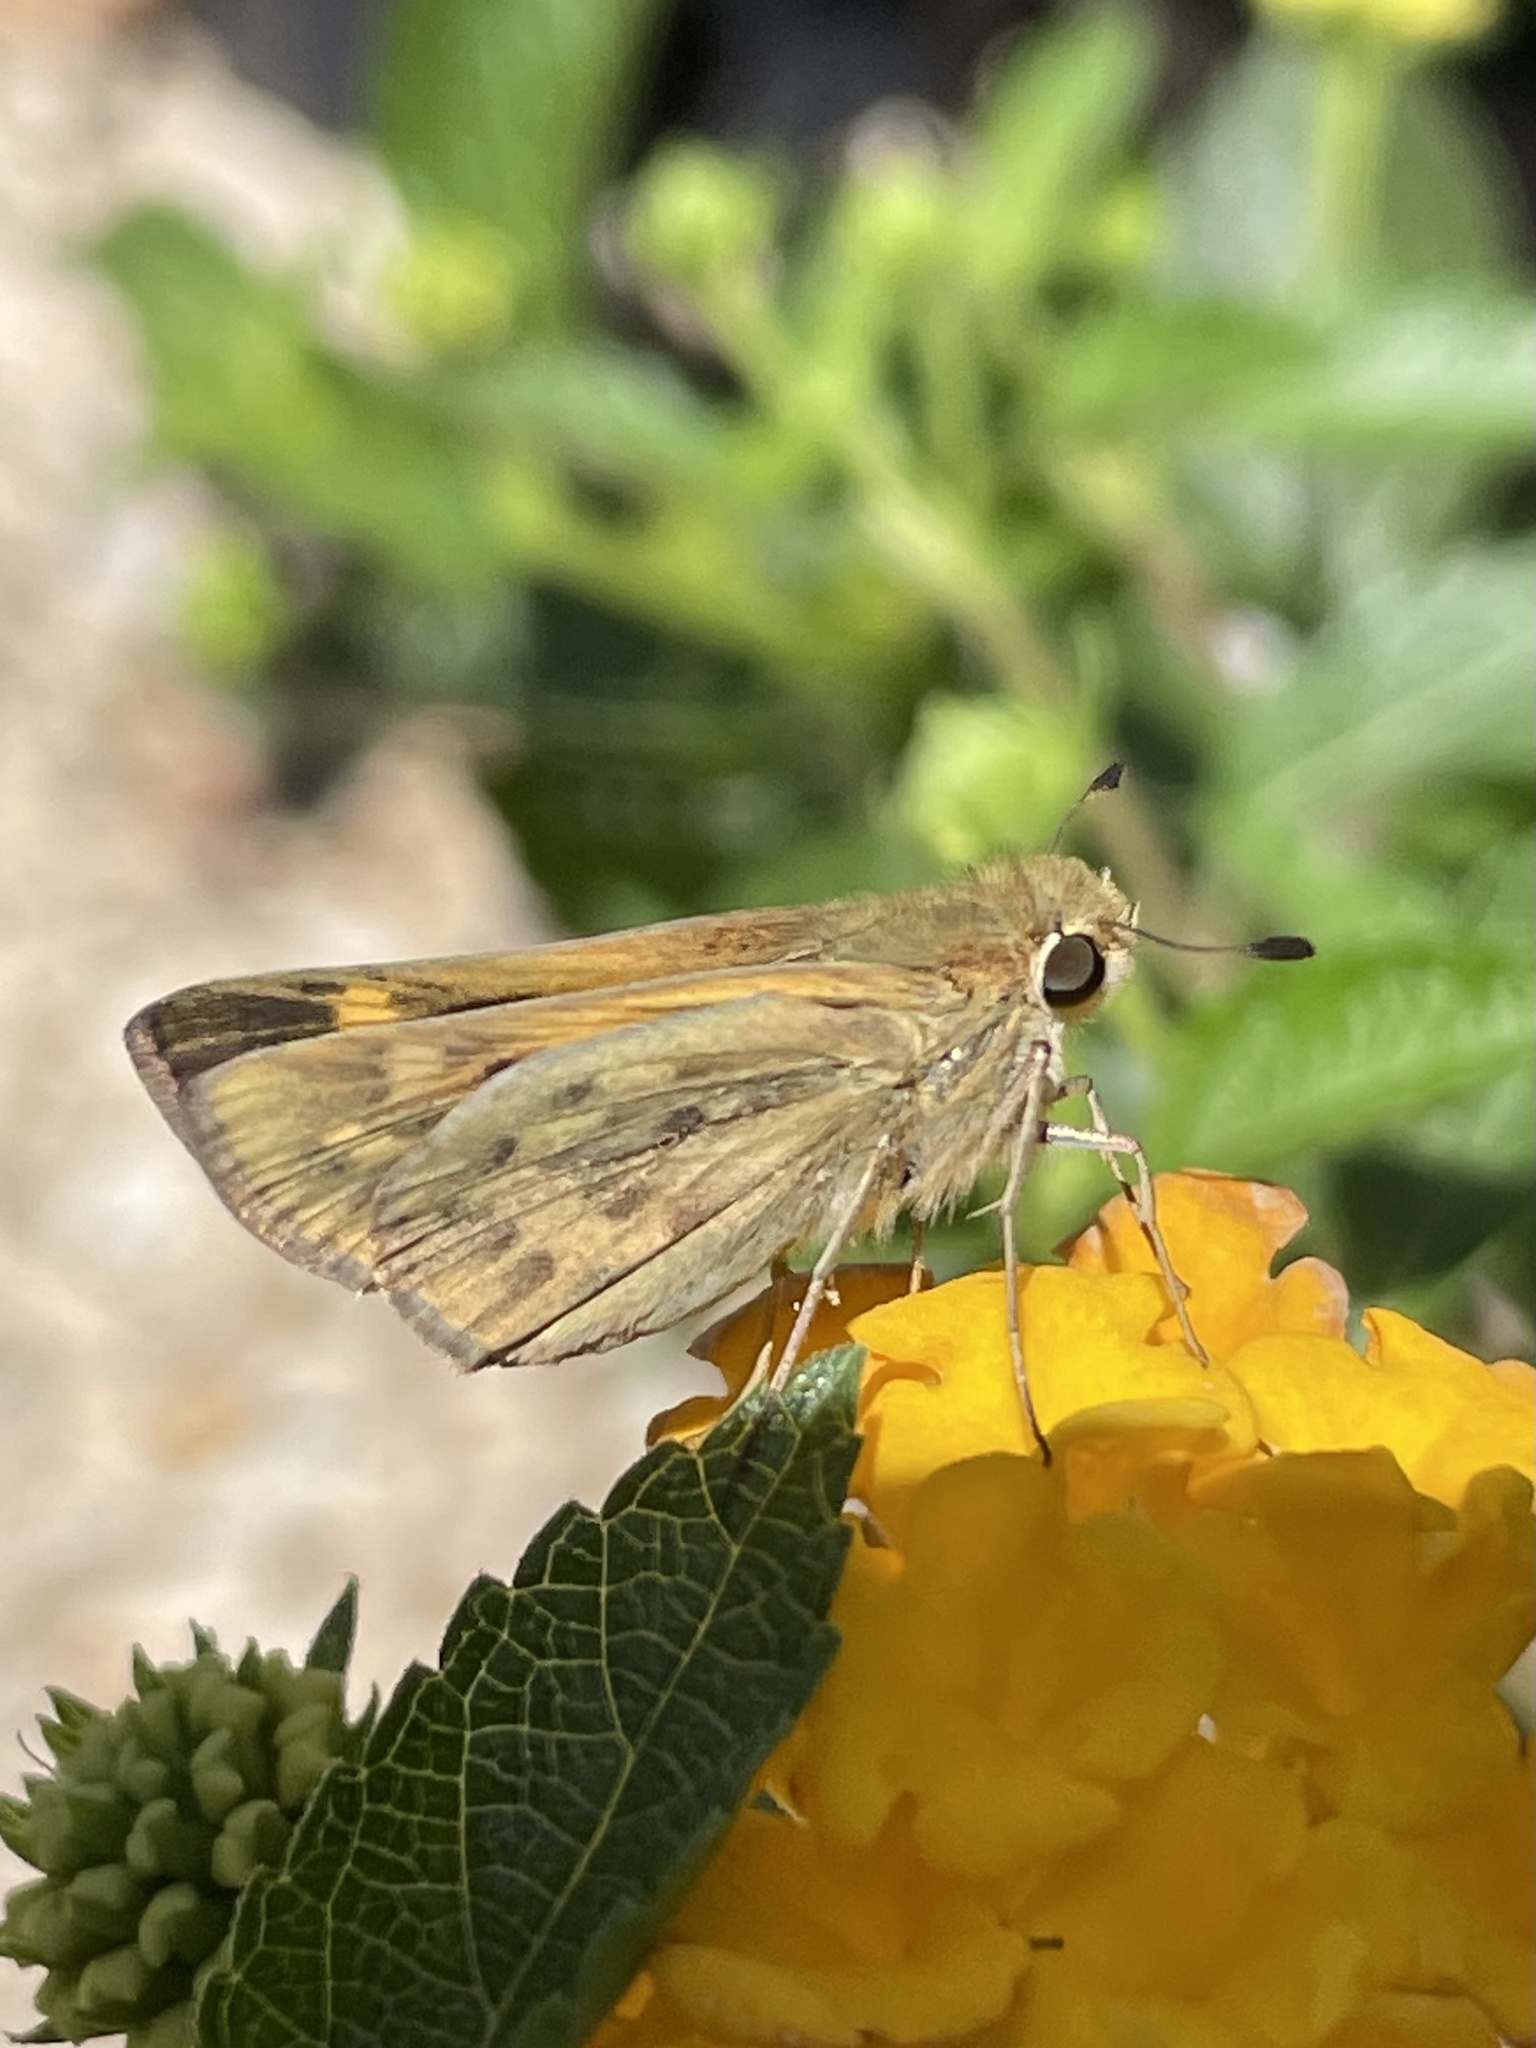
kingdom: Animalia
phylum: Arthropoda
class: Insecta
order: Lepidoptera
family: Hesperiidae
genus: Hylephila
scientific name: Hylephila phyleus
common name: Fiery skipper
